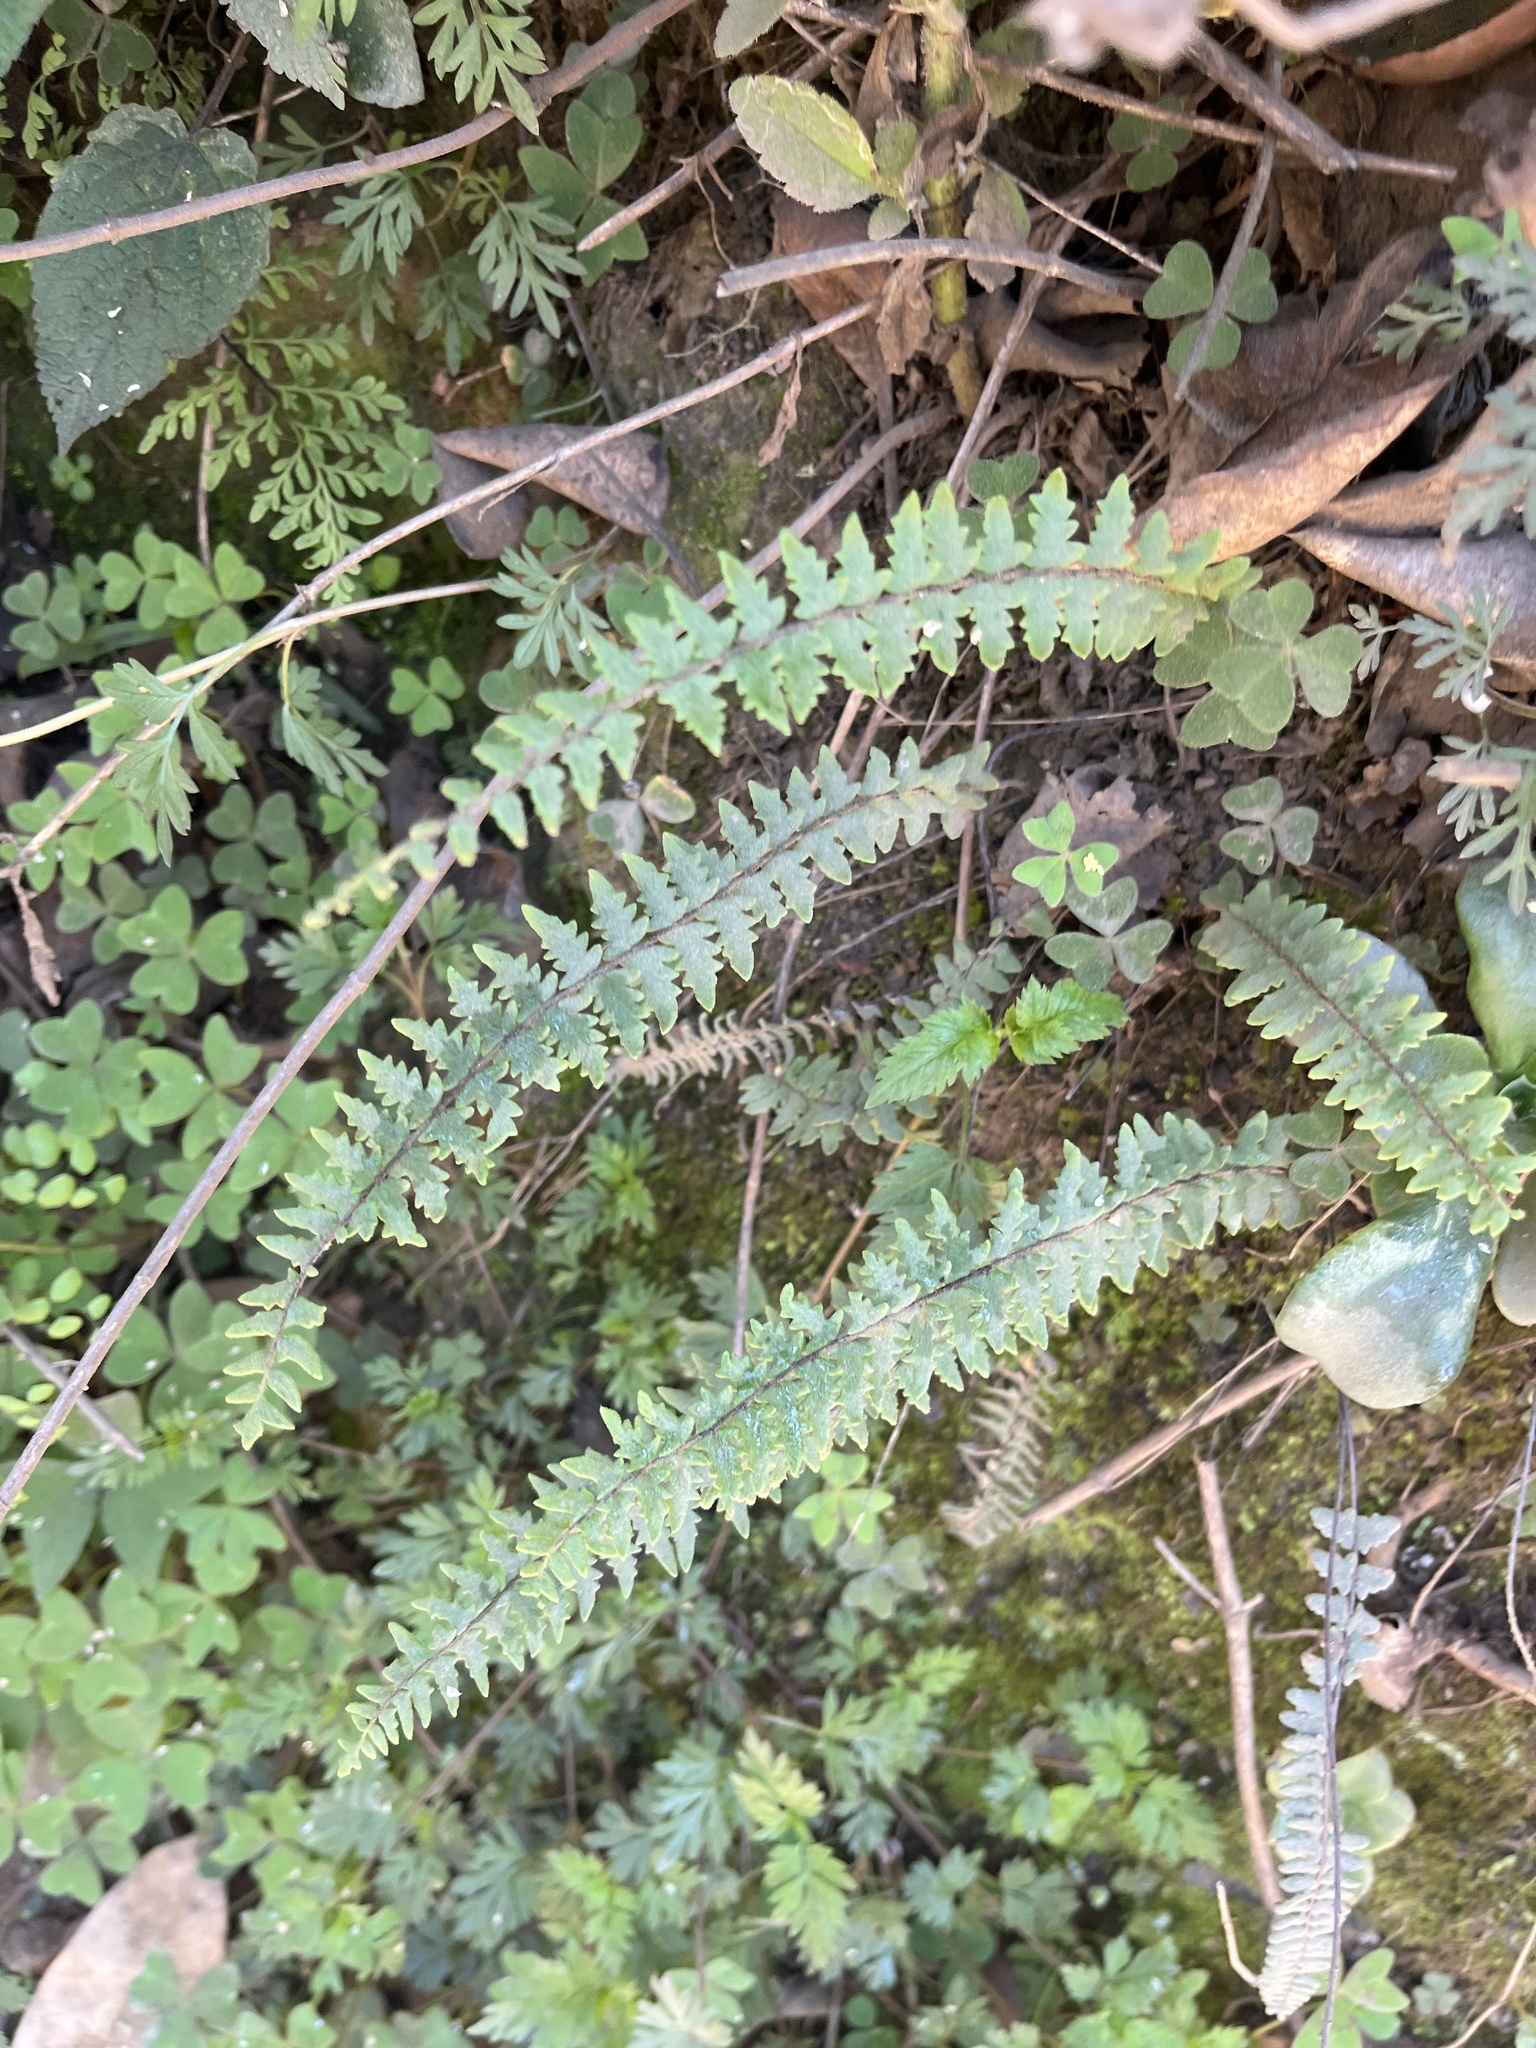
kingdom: Plantae
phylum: Tracheophyta
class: Polypodiopsida
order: Polypodiales
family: Pteridaceae
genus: Myriopteris
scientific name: Myriopteris aurea
